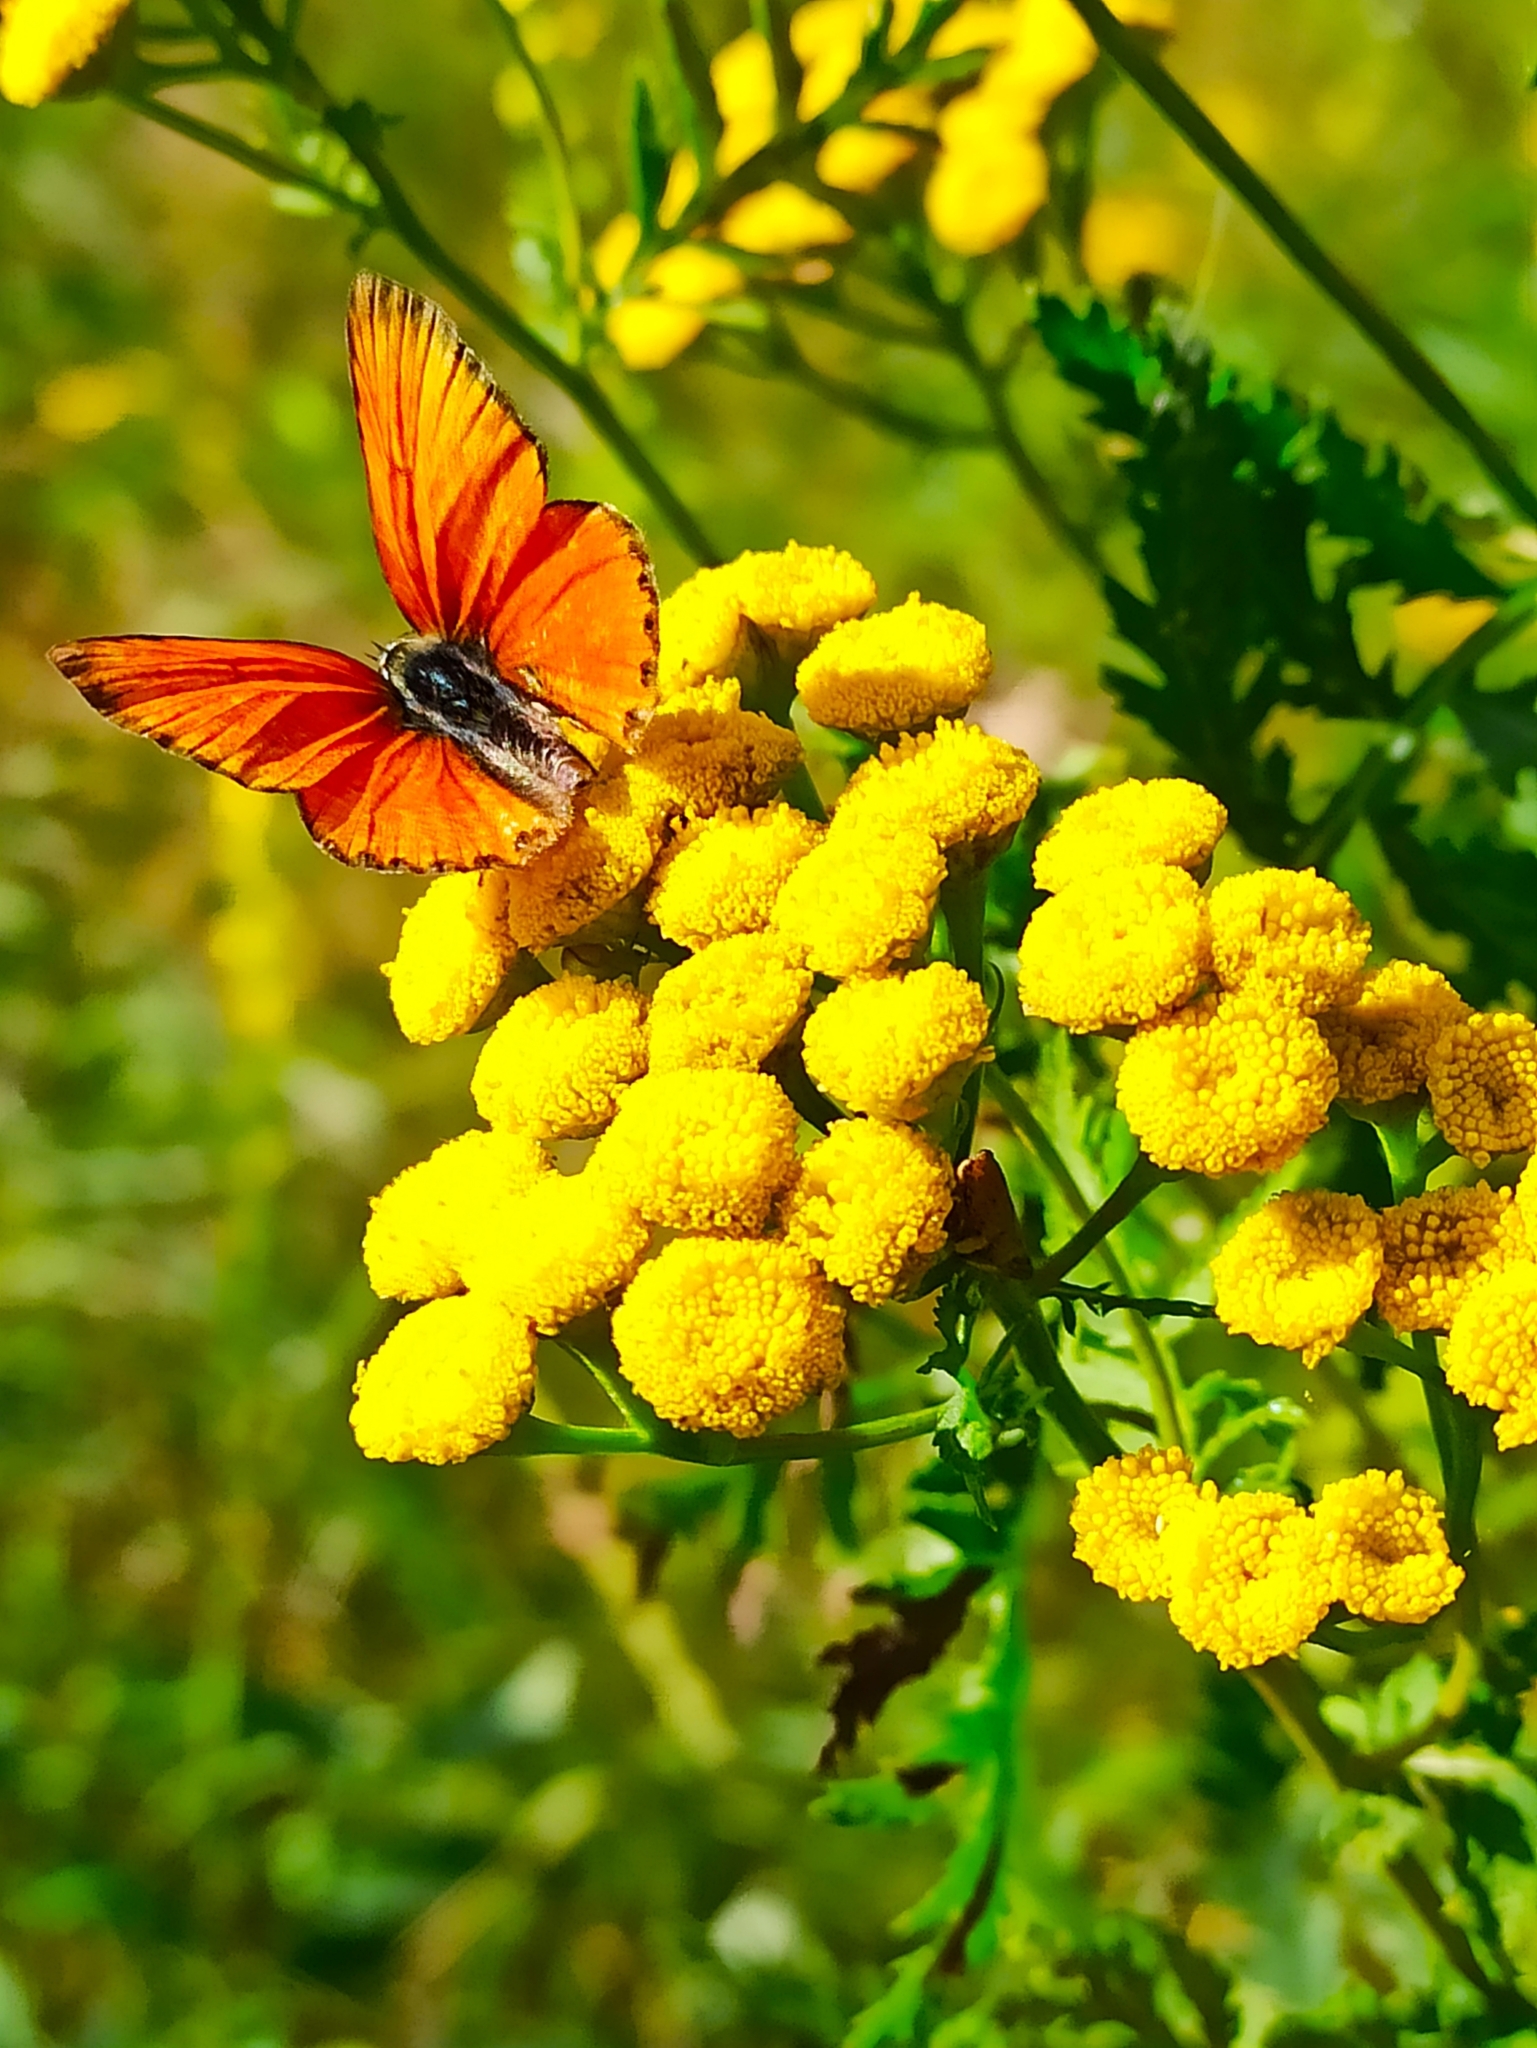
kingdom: Animalia
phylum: Arthropoda
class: Insecta
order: Lepidoptera
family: Lycaenidae
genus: Lycaena
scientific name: Lycaena virgaureae
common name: Scarce copper
